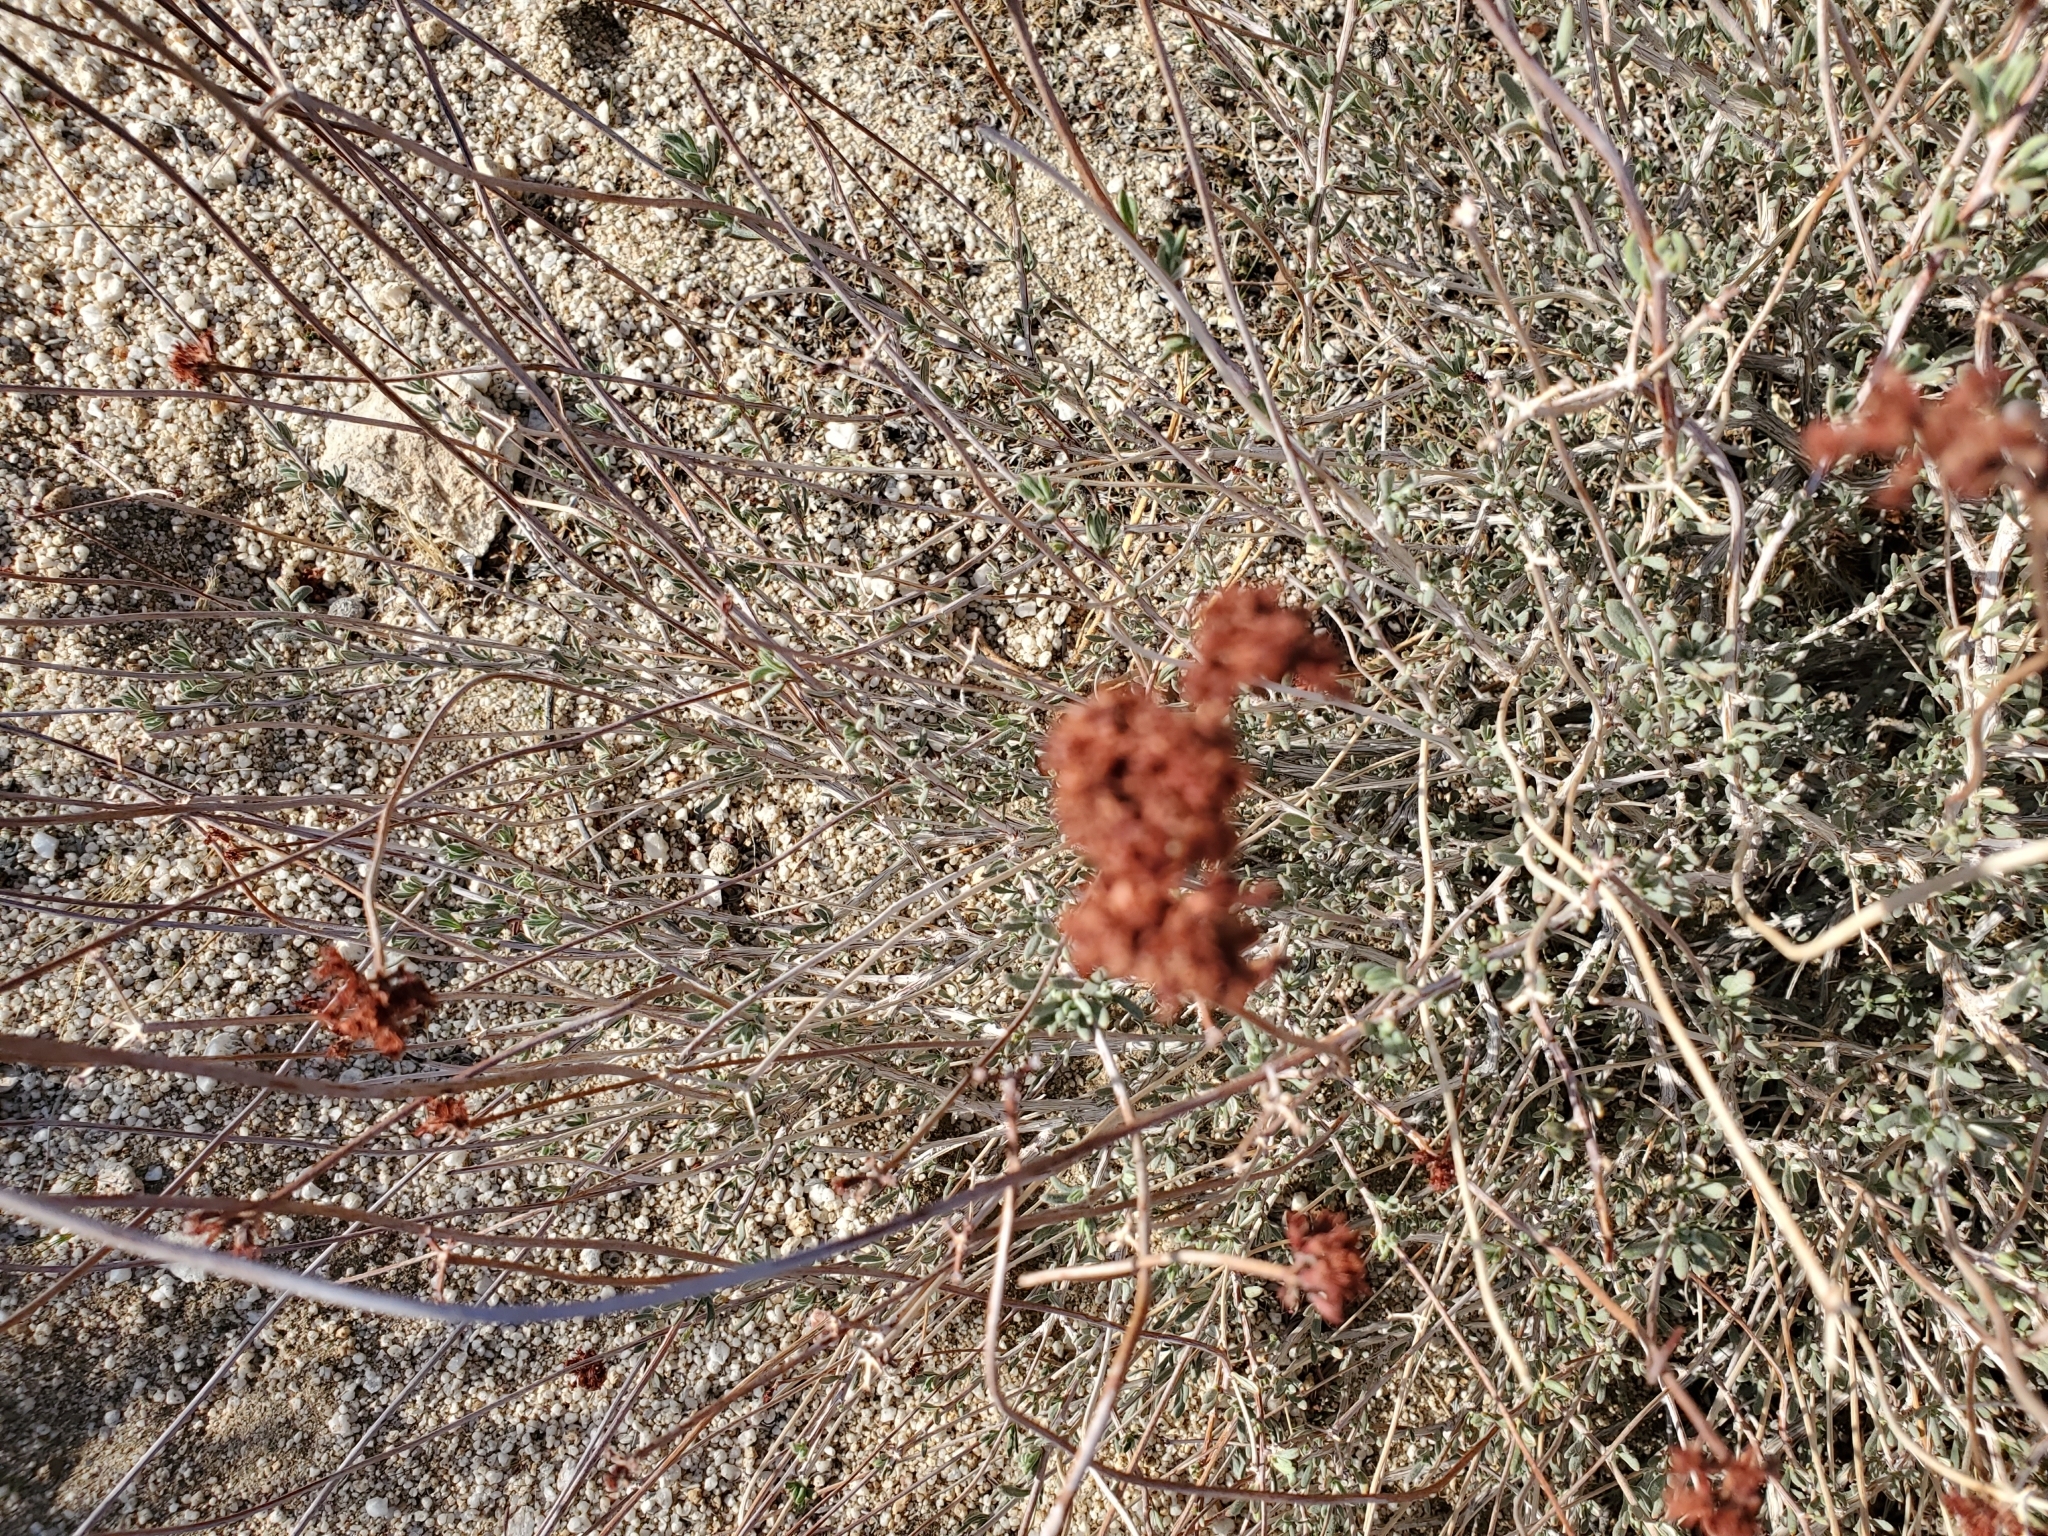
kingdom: Plantae
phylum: Tracheophyta
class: Magnoliopsida
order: Caryophyllales
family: Polygonaceae
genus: Eriogonum
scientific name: Eriogonum fasciculatum
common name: California wild buckwheat
